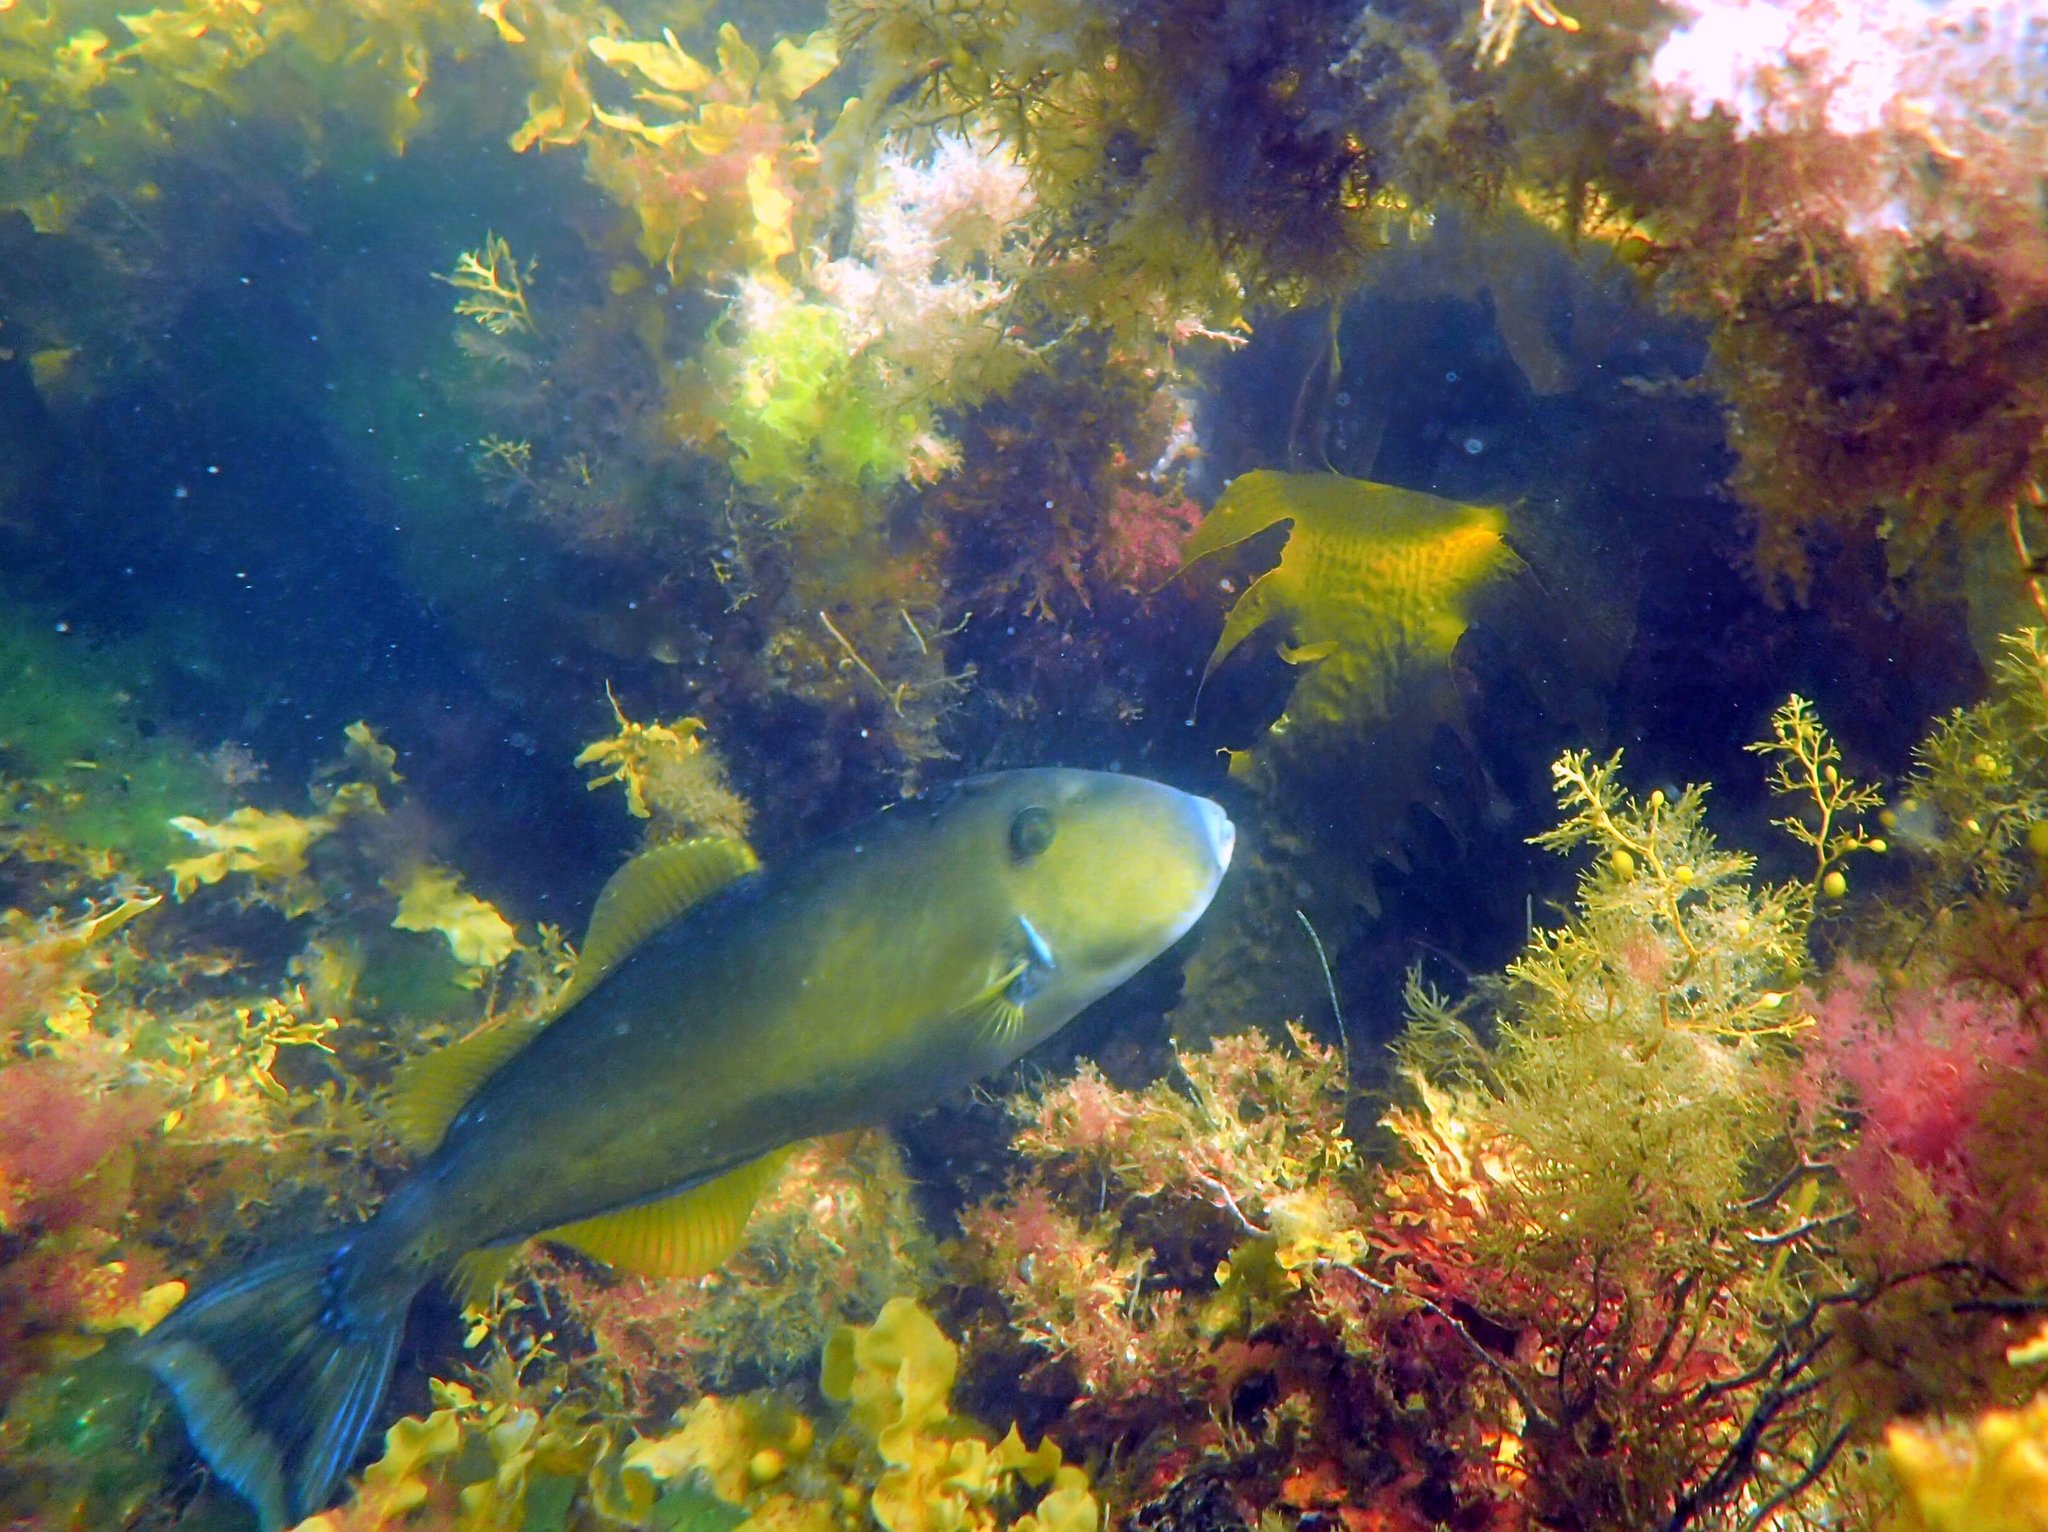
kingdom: Animalia
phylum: Chordata
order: Tetraodontiformes
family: Monacanthidae
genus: Meuschenia
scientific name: Meuschenia freycineti
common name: Freycinet's leatherjacket
